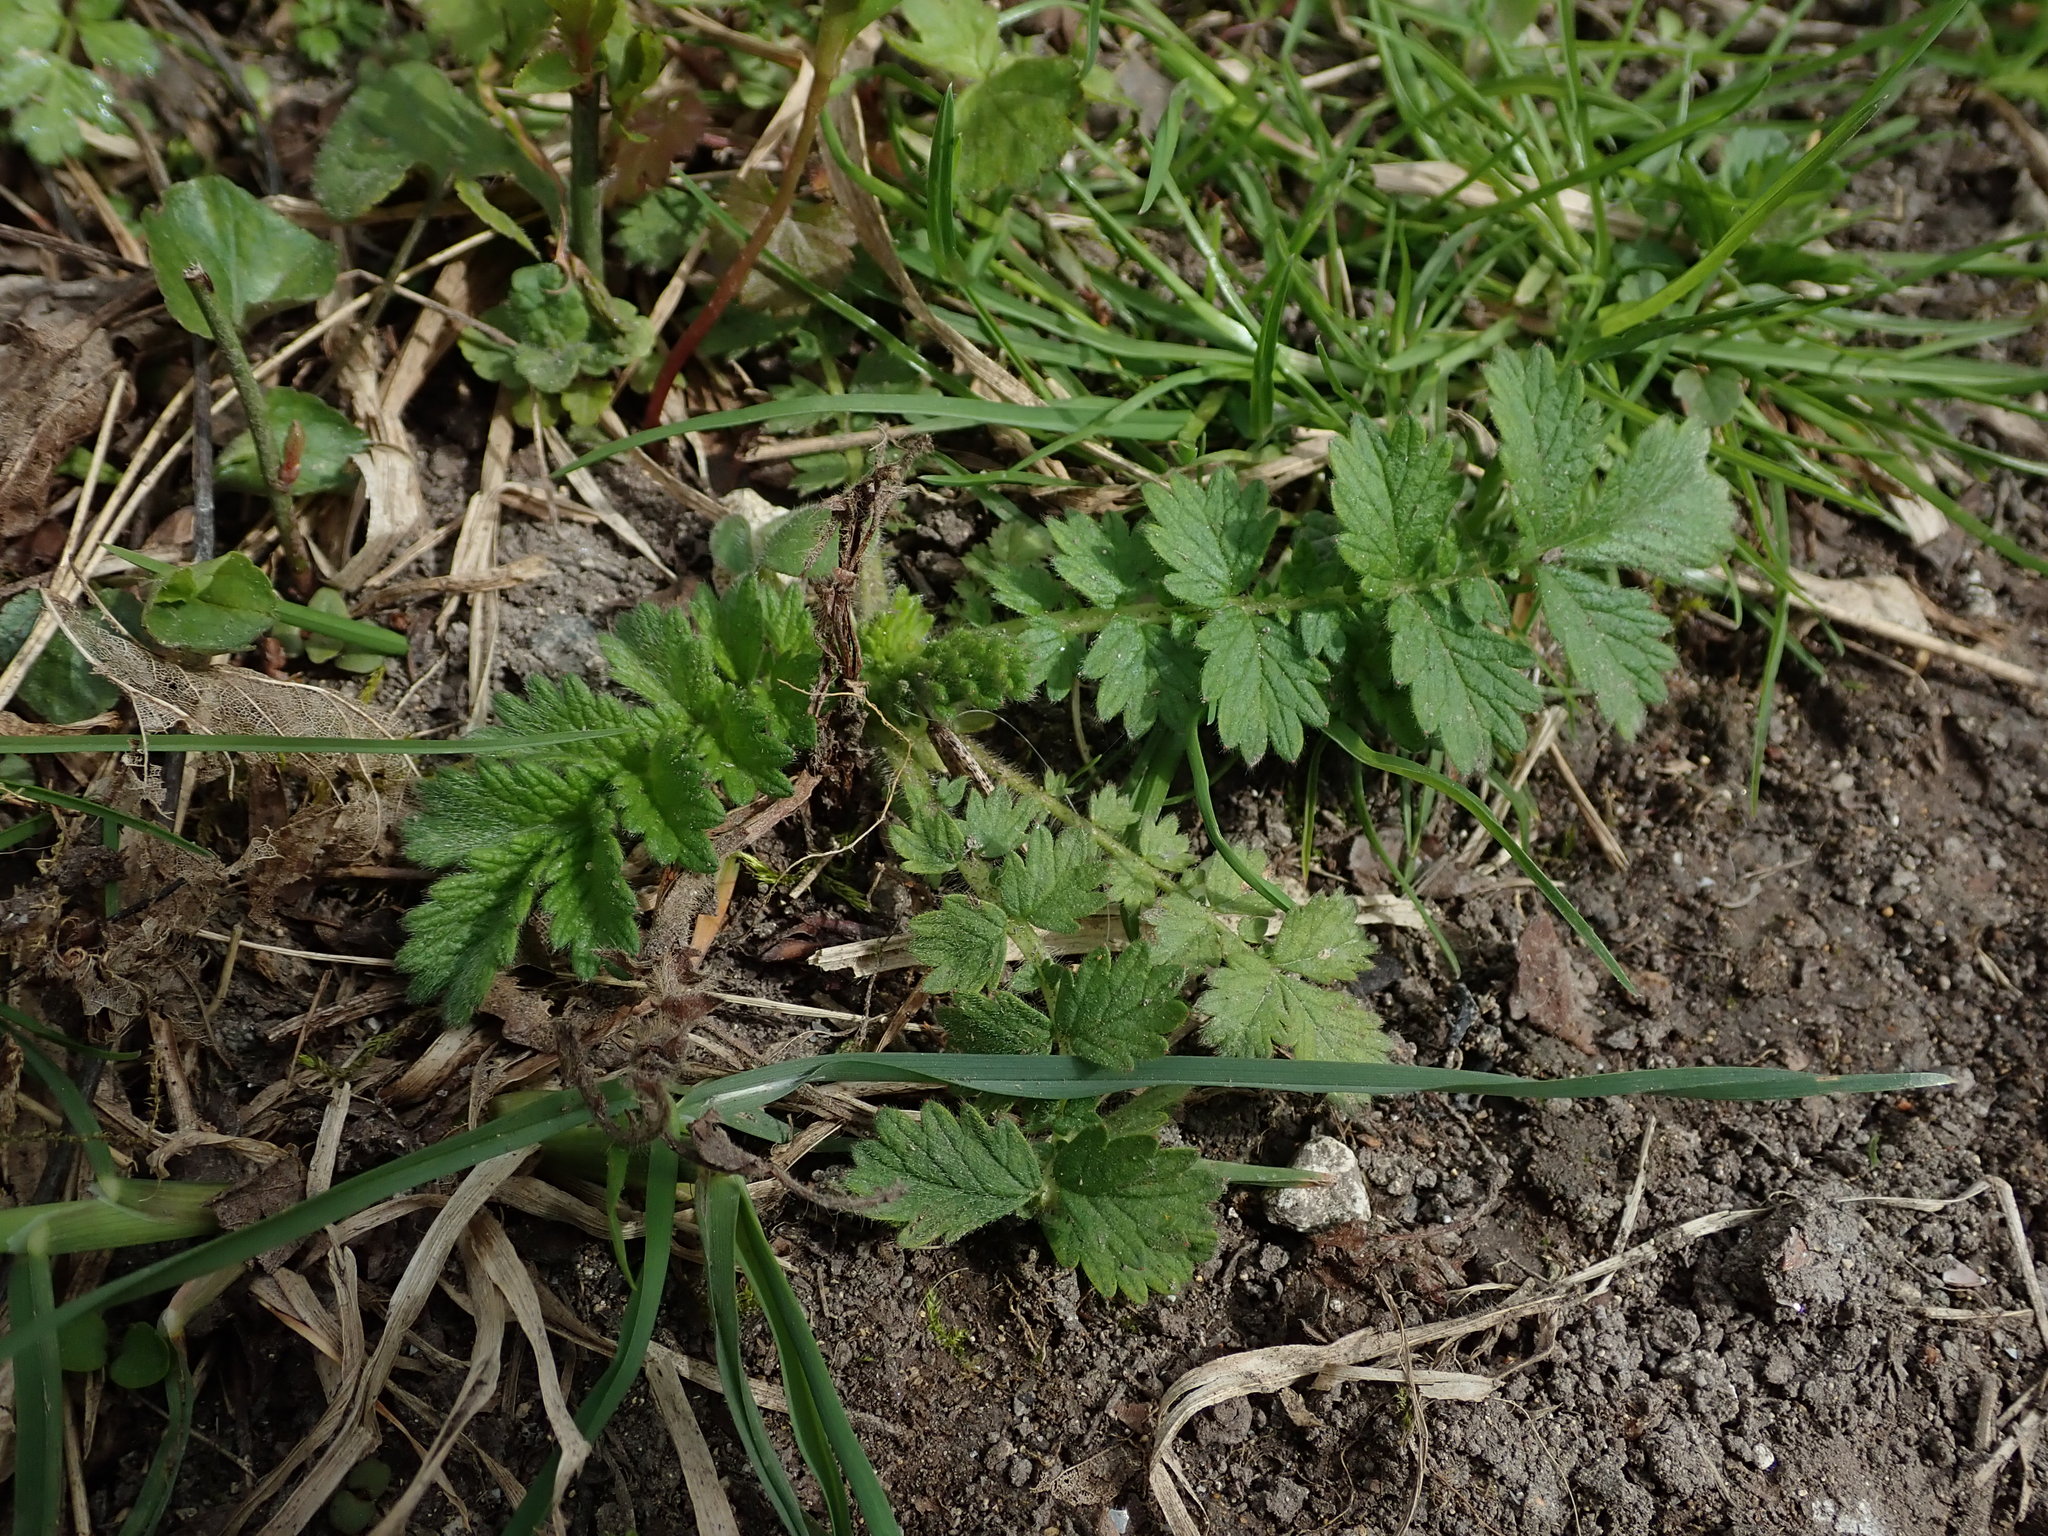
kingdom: Plantae
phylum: Tracheophyta
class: Magnoliopsida
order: Rosales
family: Rosaceae
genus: Agrimonia
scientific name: Agrimonia eupatoria
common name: Agrimony
